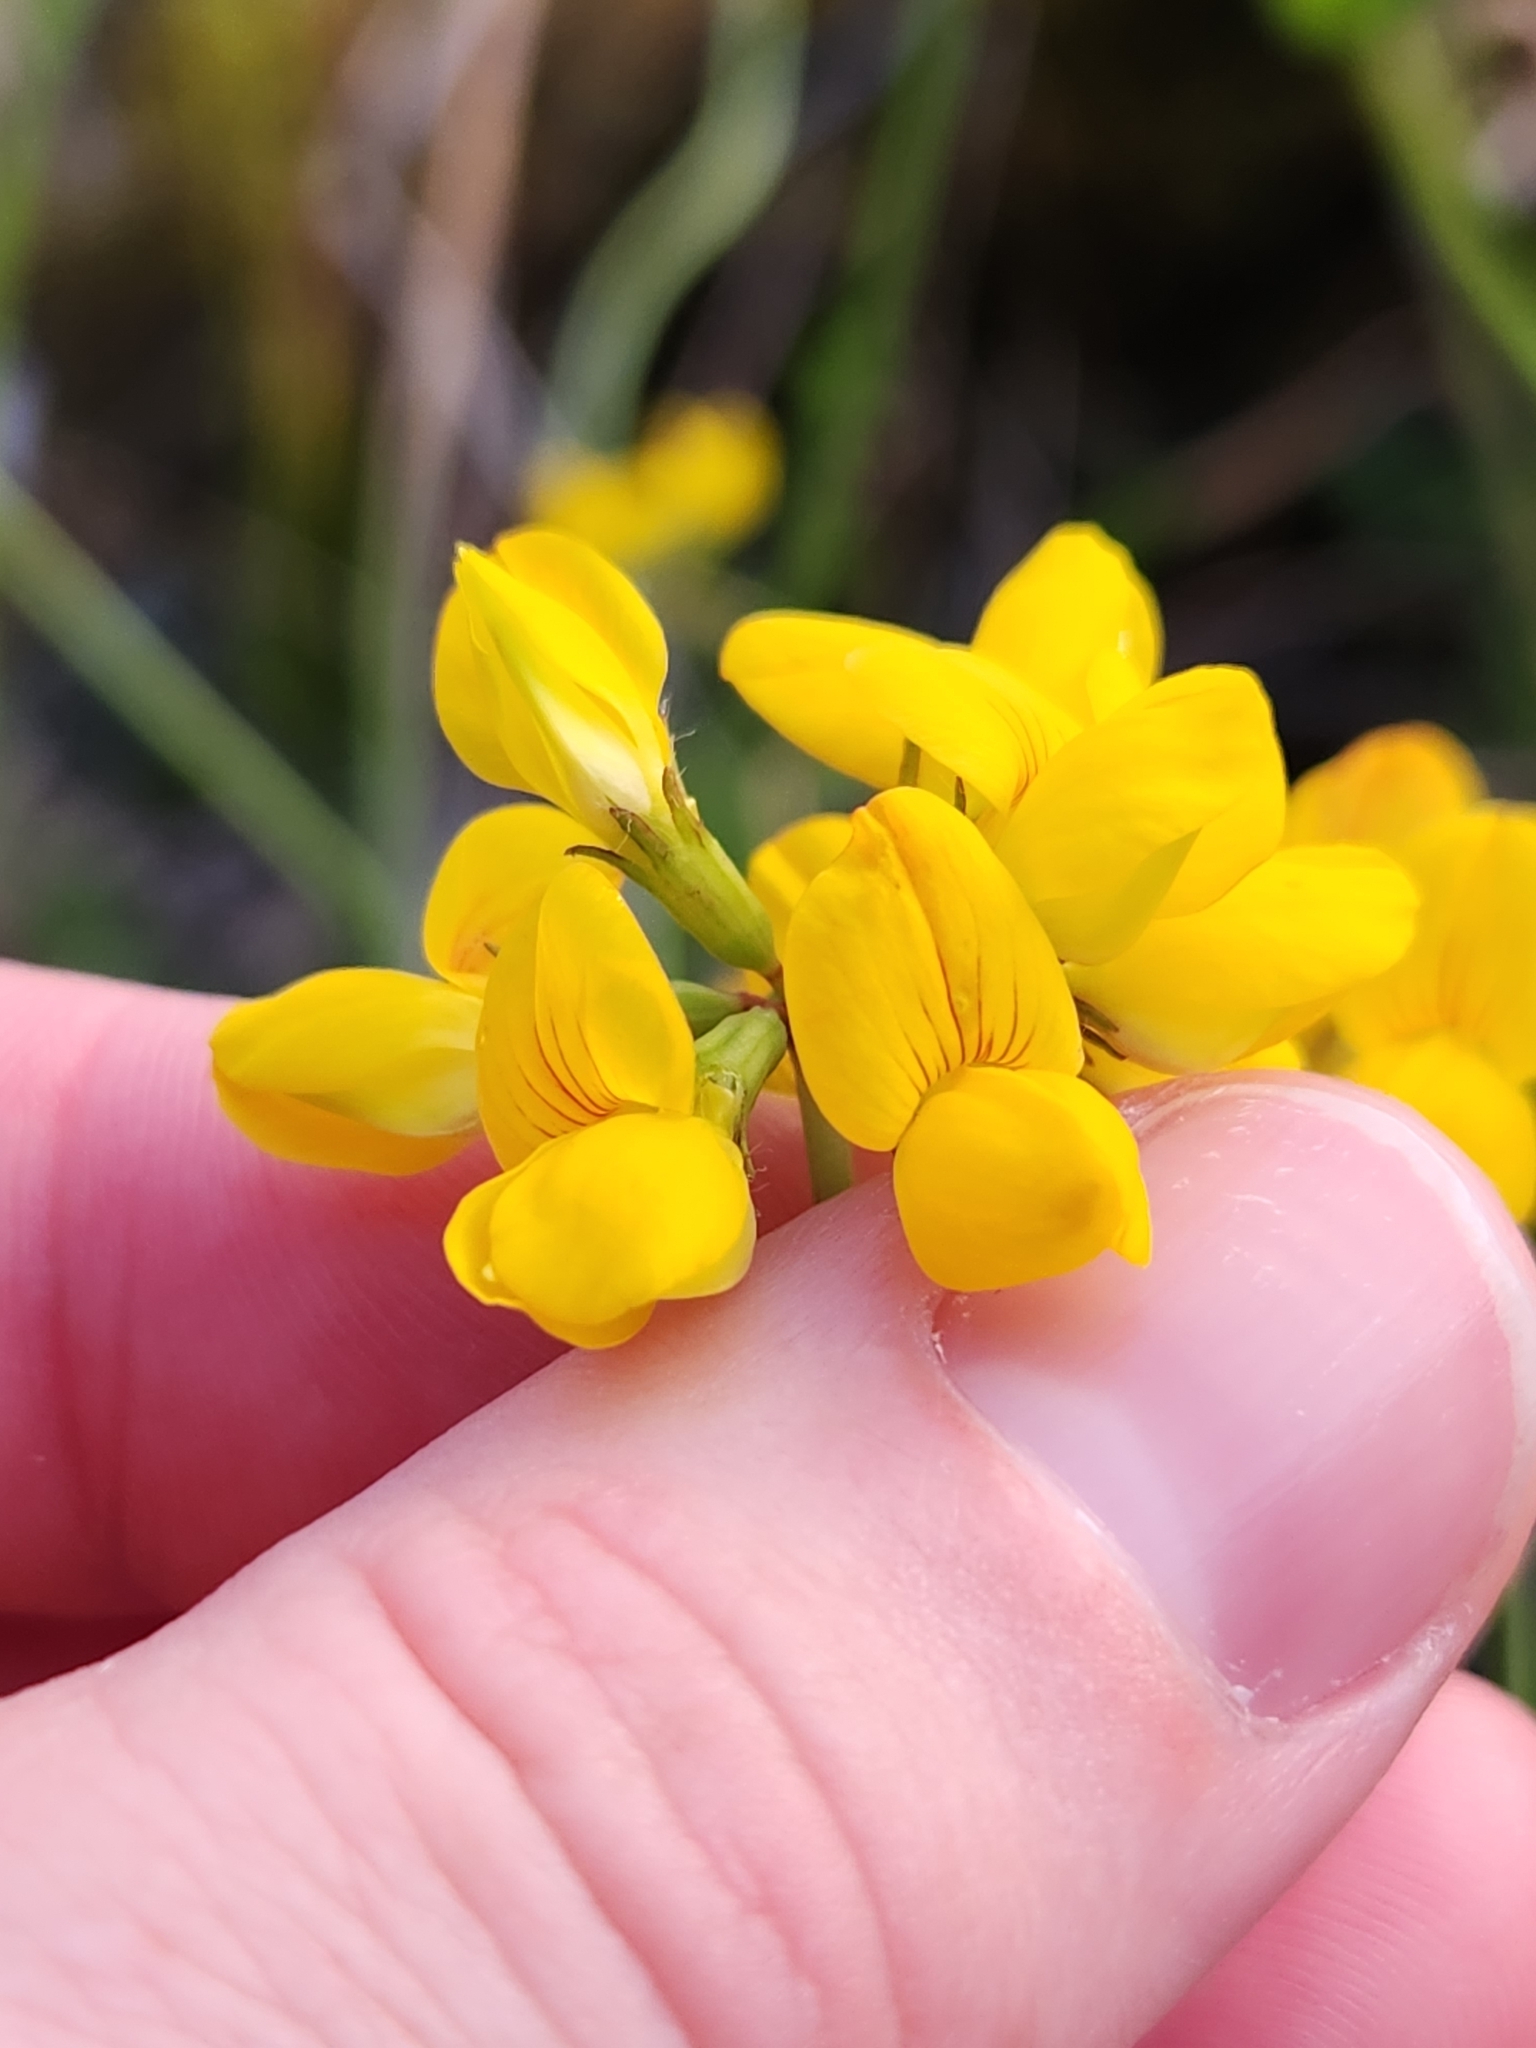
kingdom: Plantae
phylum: Tracheophyta
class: Magnoliopsida
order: Fabales
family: Fabaceae
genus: Lotus
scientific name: Lotus pedunculatus
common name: Greater birdsfoot-trefoil
